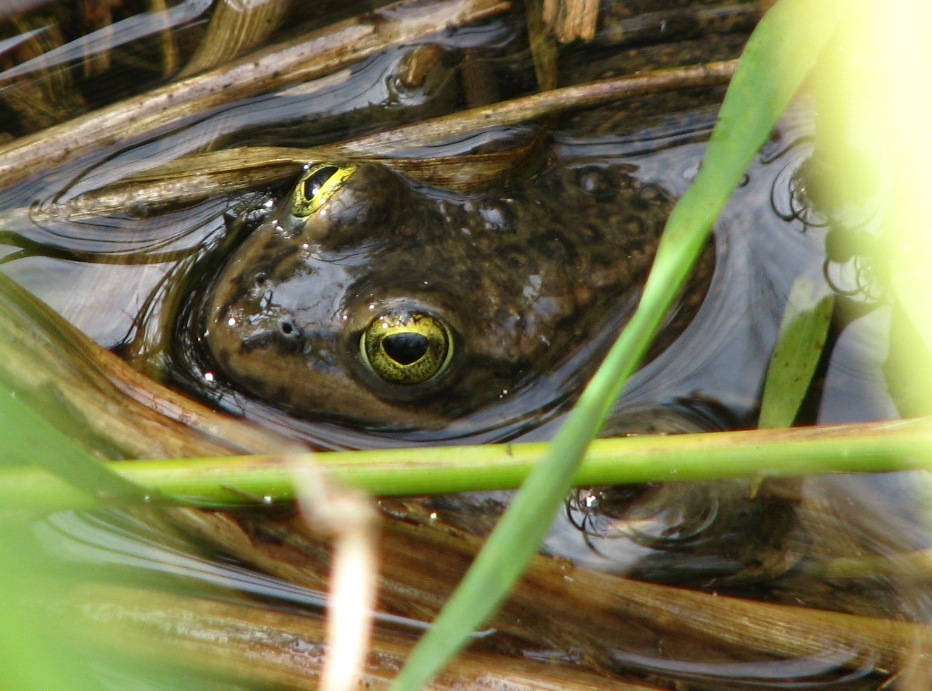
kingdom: Animalia
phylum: Chordata
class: Amphibia
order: Anura
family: Ranidae
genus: Rana
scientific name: Rana pretiosa
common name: Oregon spotted frog
